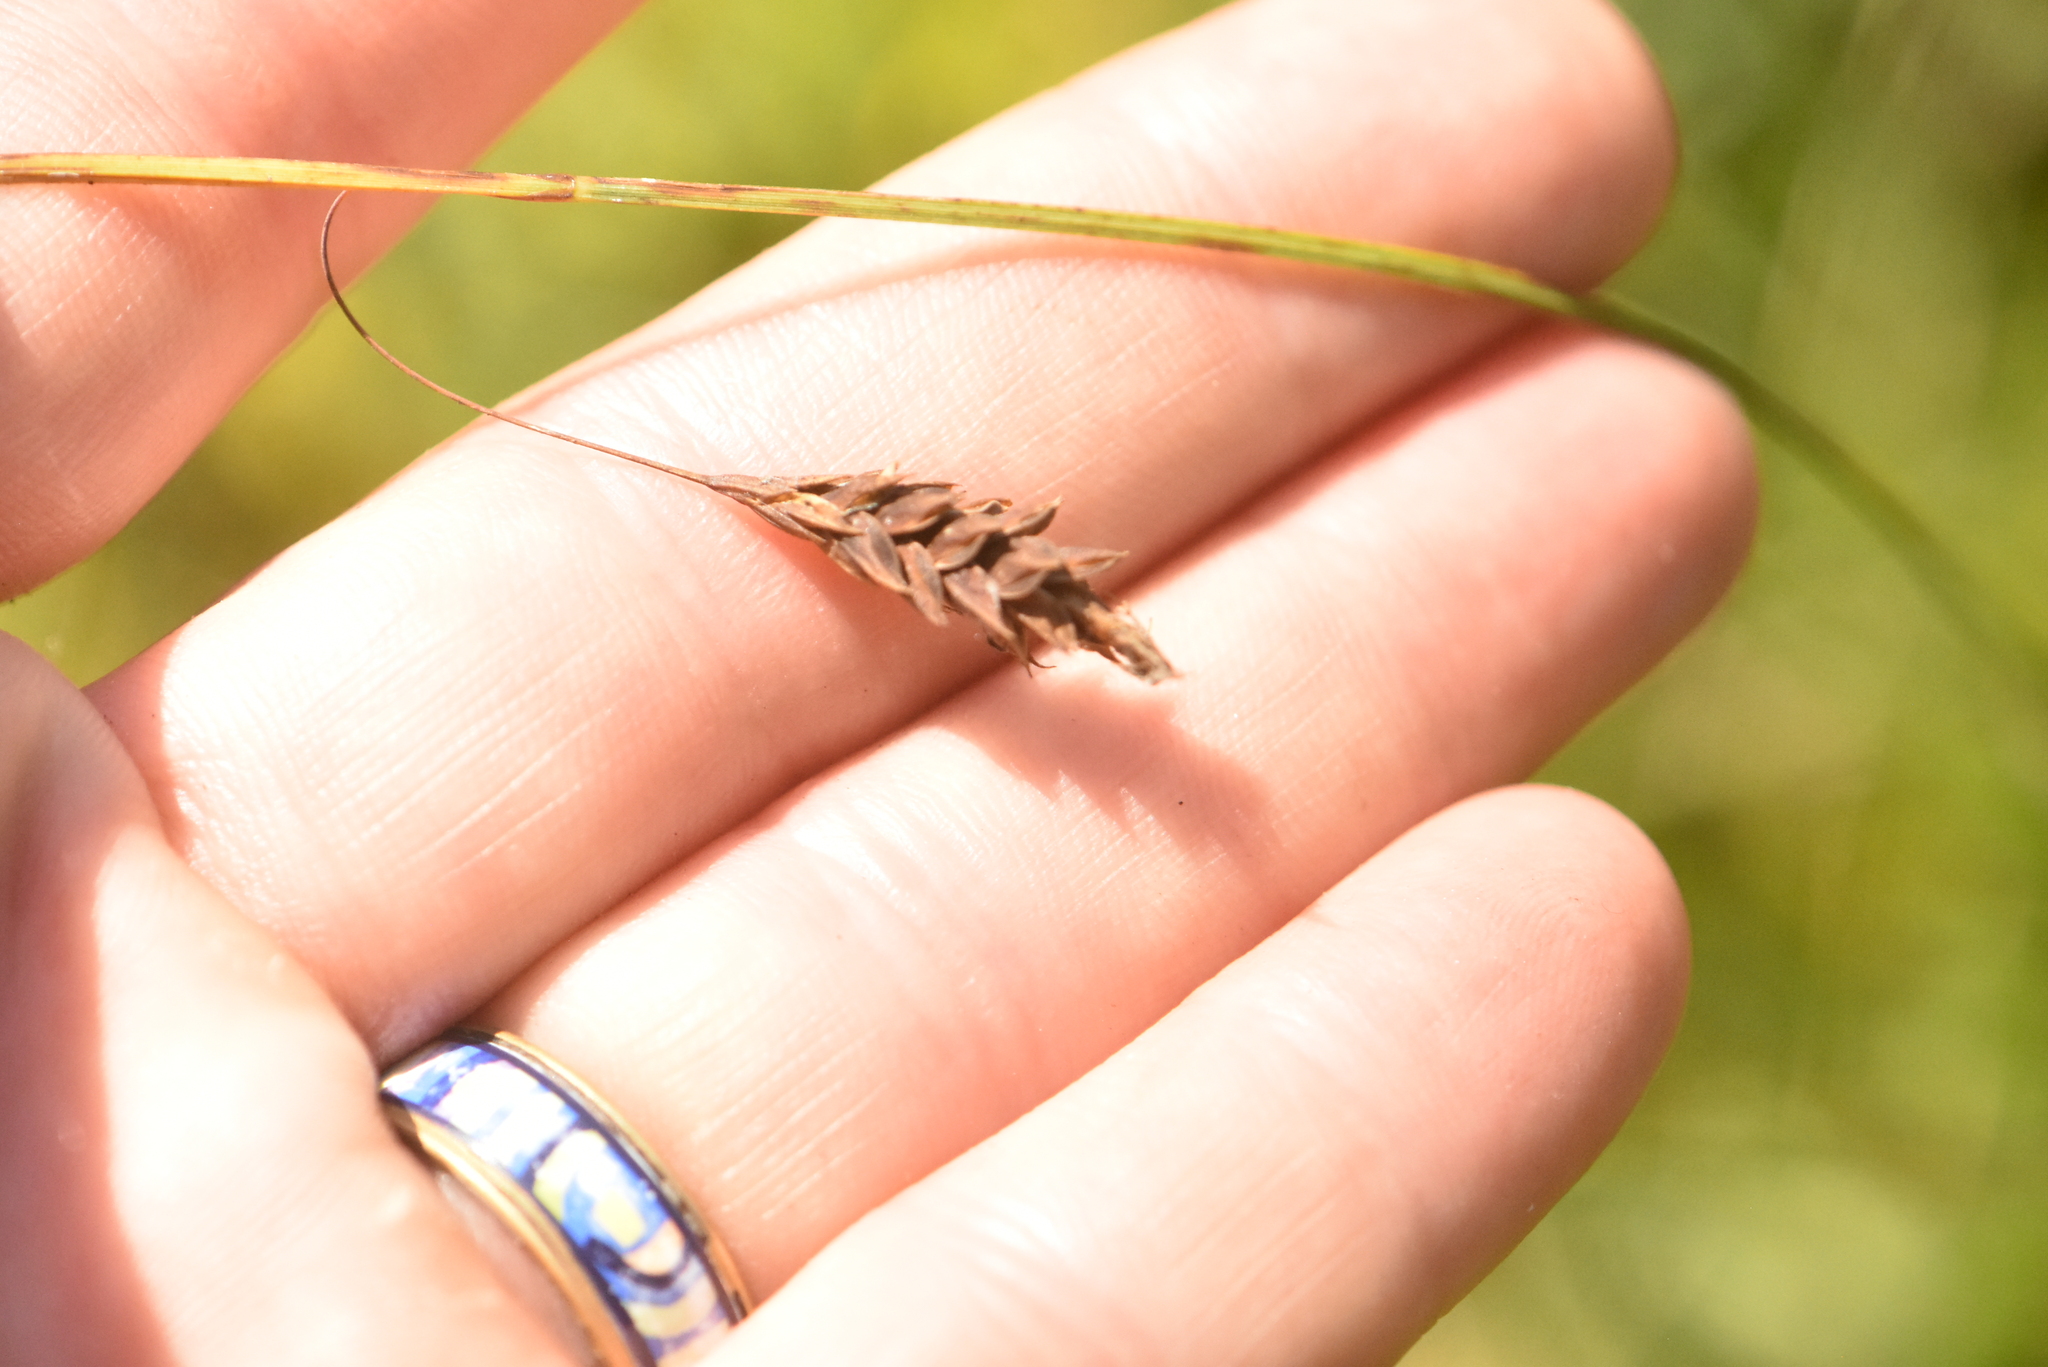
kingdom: Plantae
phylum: Tracheophyta
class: Liliopsida
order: Poales
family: Cyperaceae
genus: Carex
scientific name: Carex limosa
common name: Bog sedge
